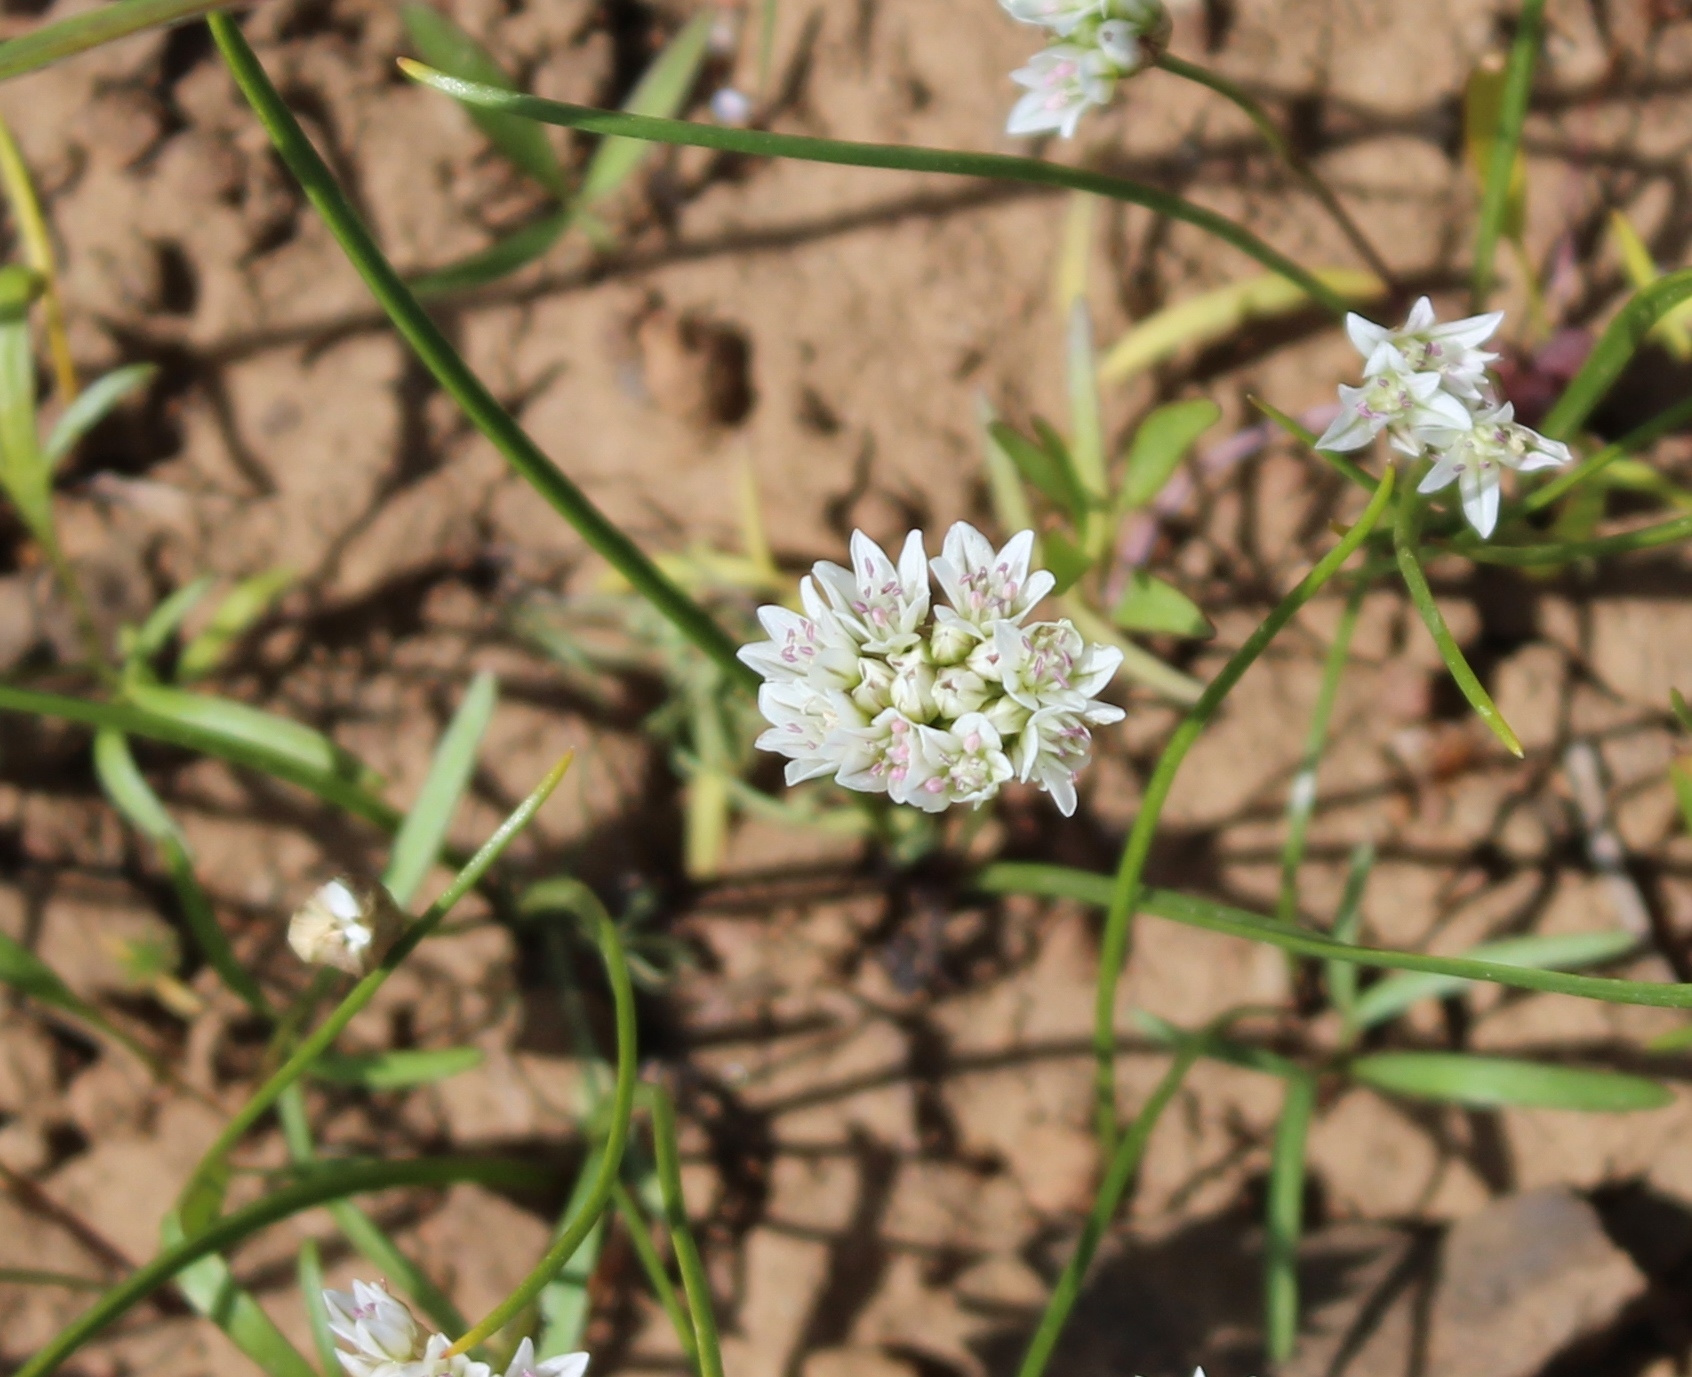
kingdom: Plantae
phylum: Tracheophyta
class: Liliopsida
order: Asparagales
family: Amaryllidaceae
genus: Allium
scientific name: Allium fibrillum
